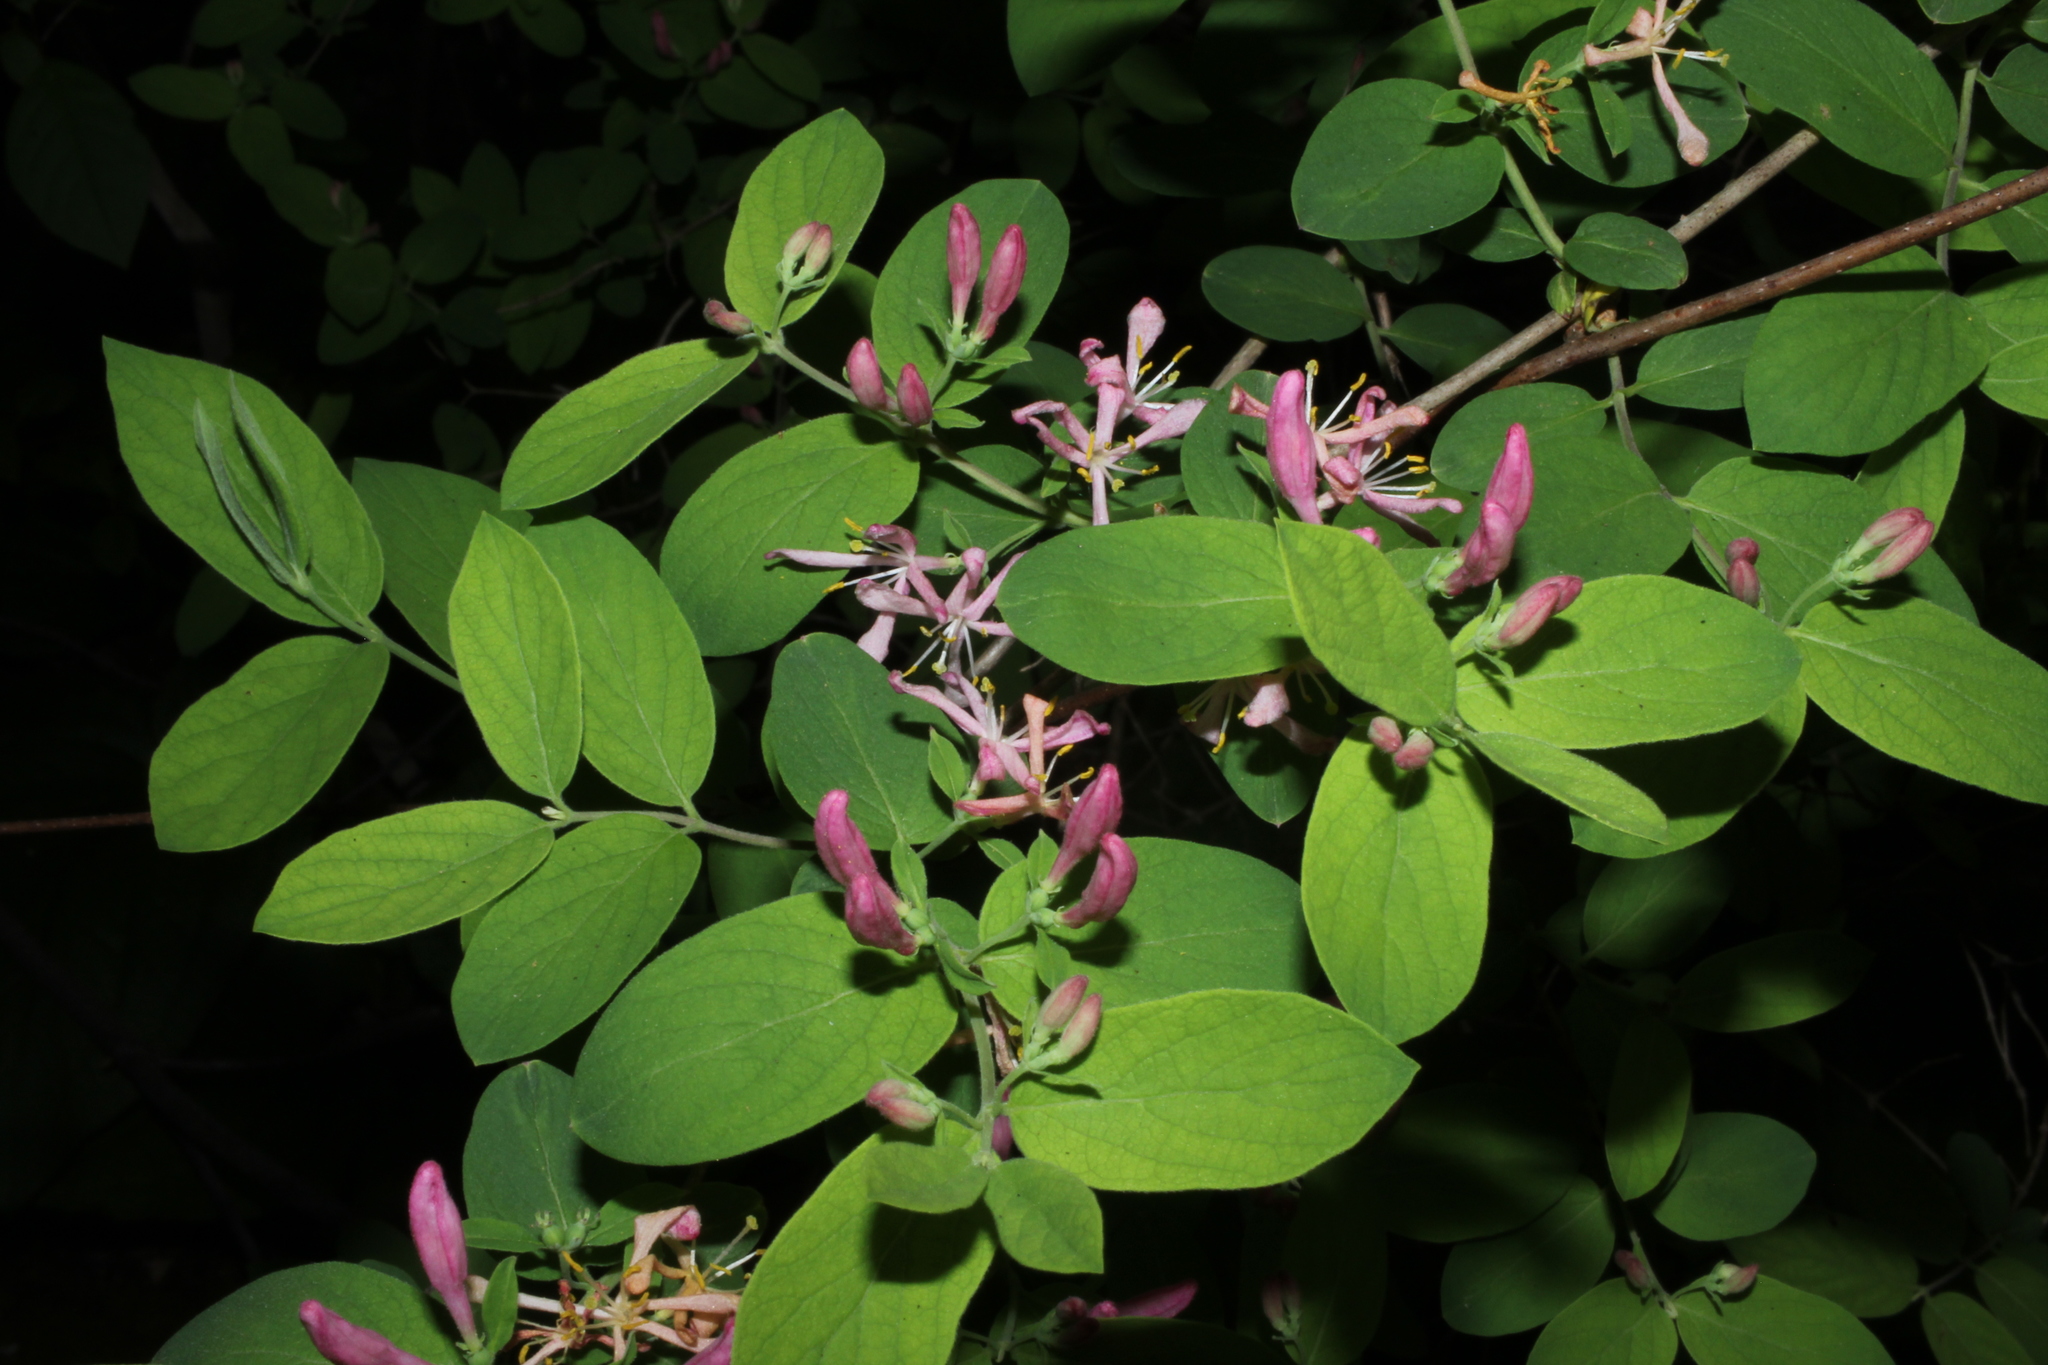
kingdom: Plantae
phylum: Tracheophyta
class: Magnoliopsida
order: Dipsacales
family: Caprifoliaceae
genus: Lonicera
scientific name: Lonicera tatarica
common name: Tatarian honeysuckle
